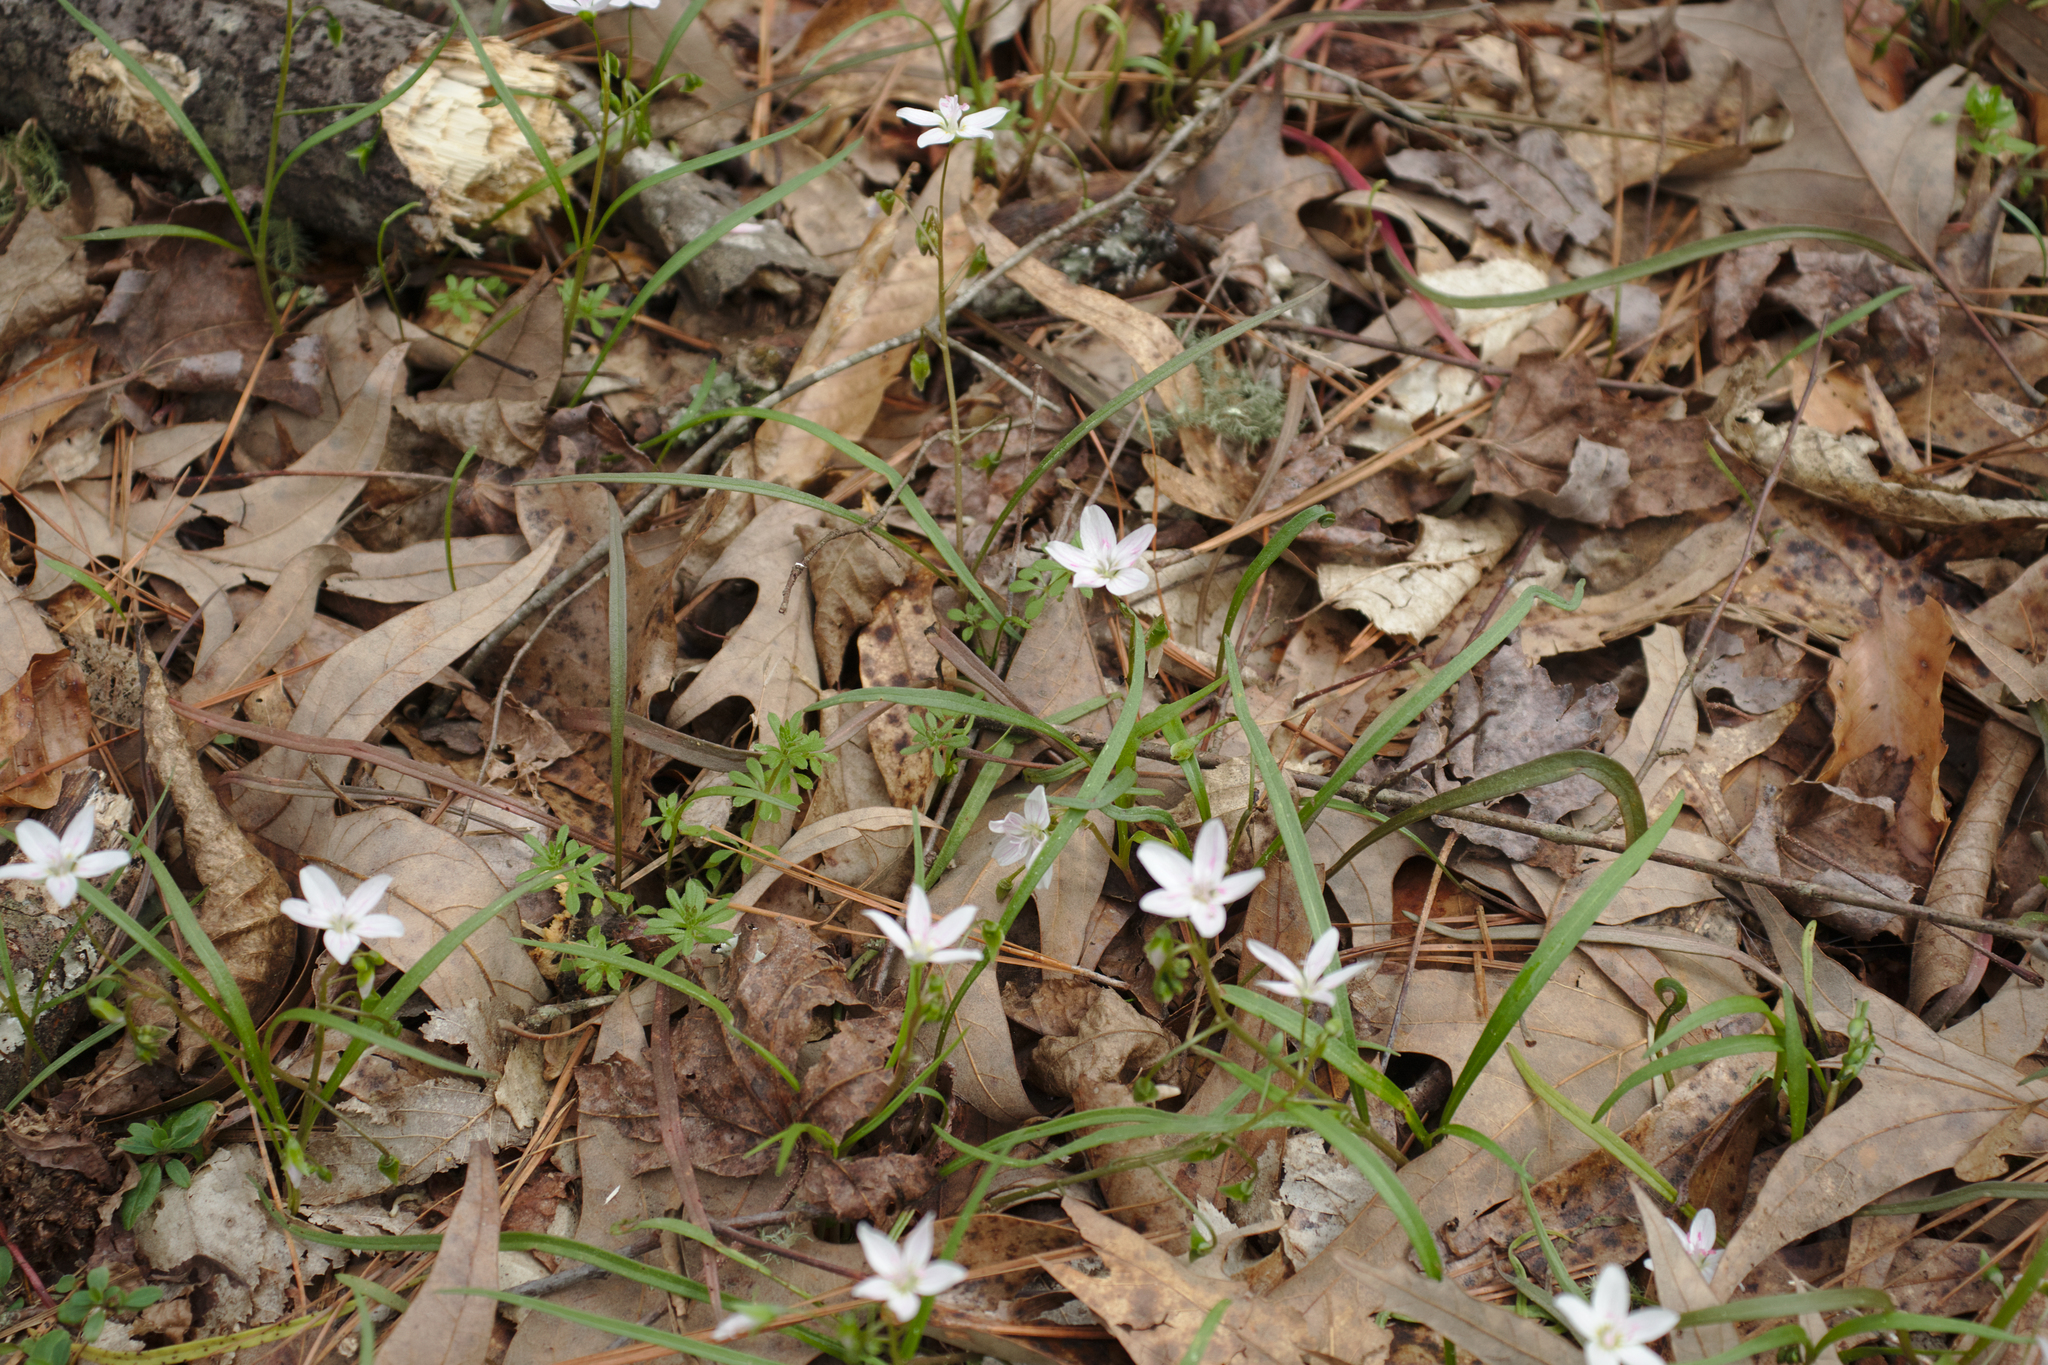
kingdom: Plantae
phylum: Tracheophyta
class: Magnoliopsida
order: Caryophyllales
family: Montiaceae
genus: Claytonia
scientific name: Claytonia virginica
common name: Virginia springbeauty
